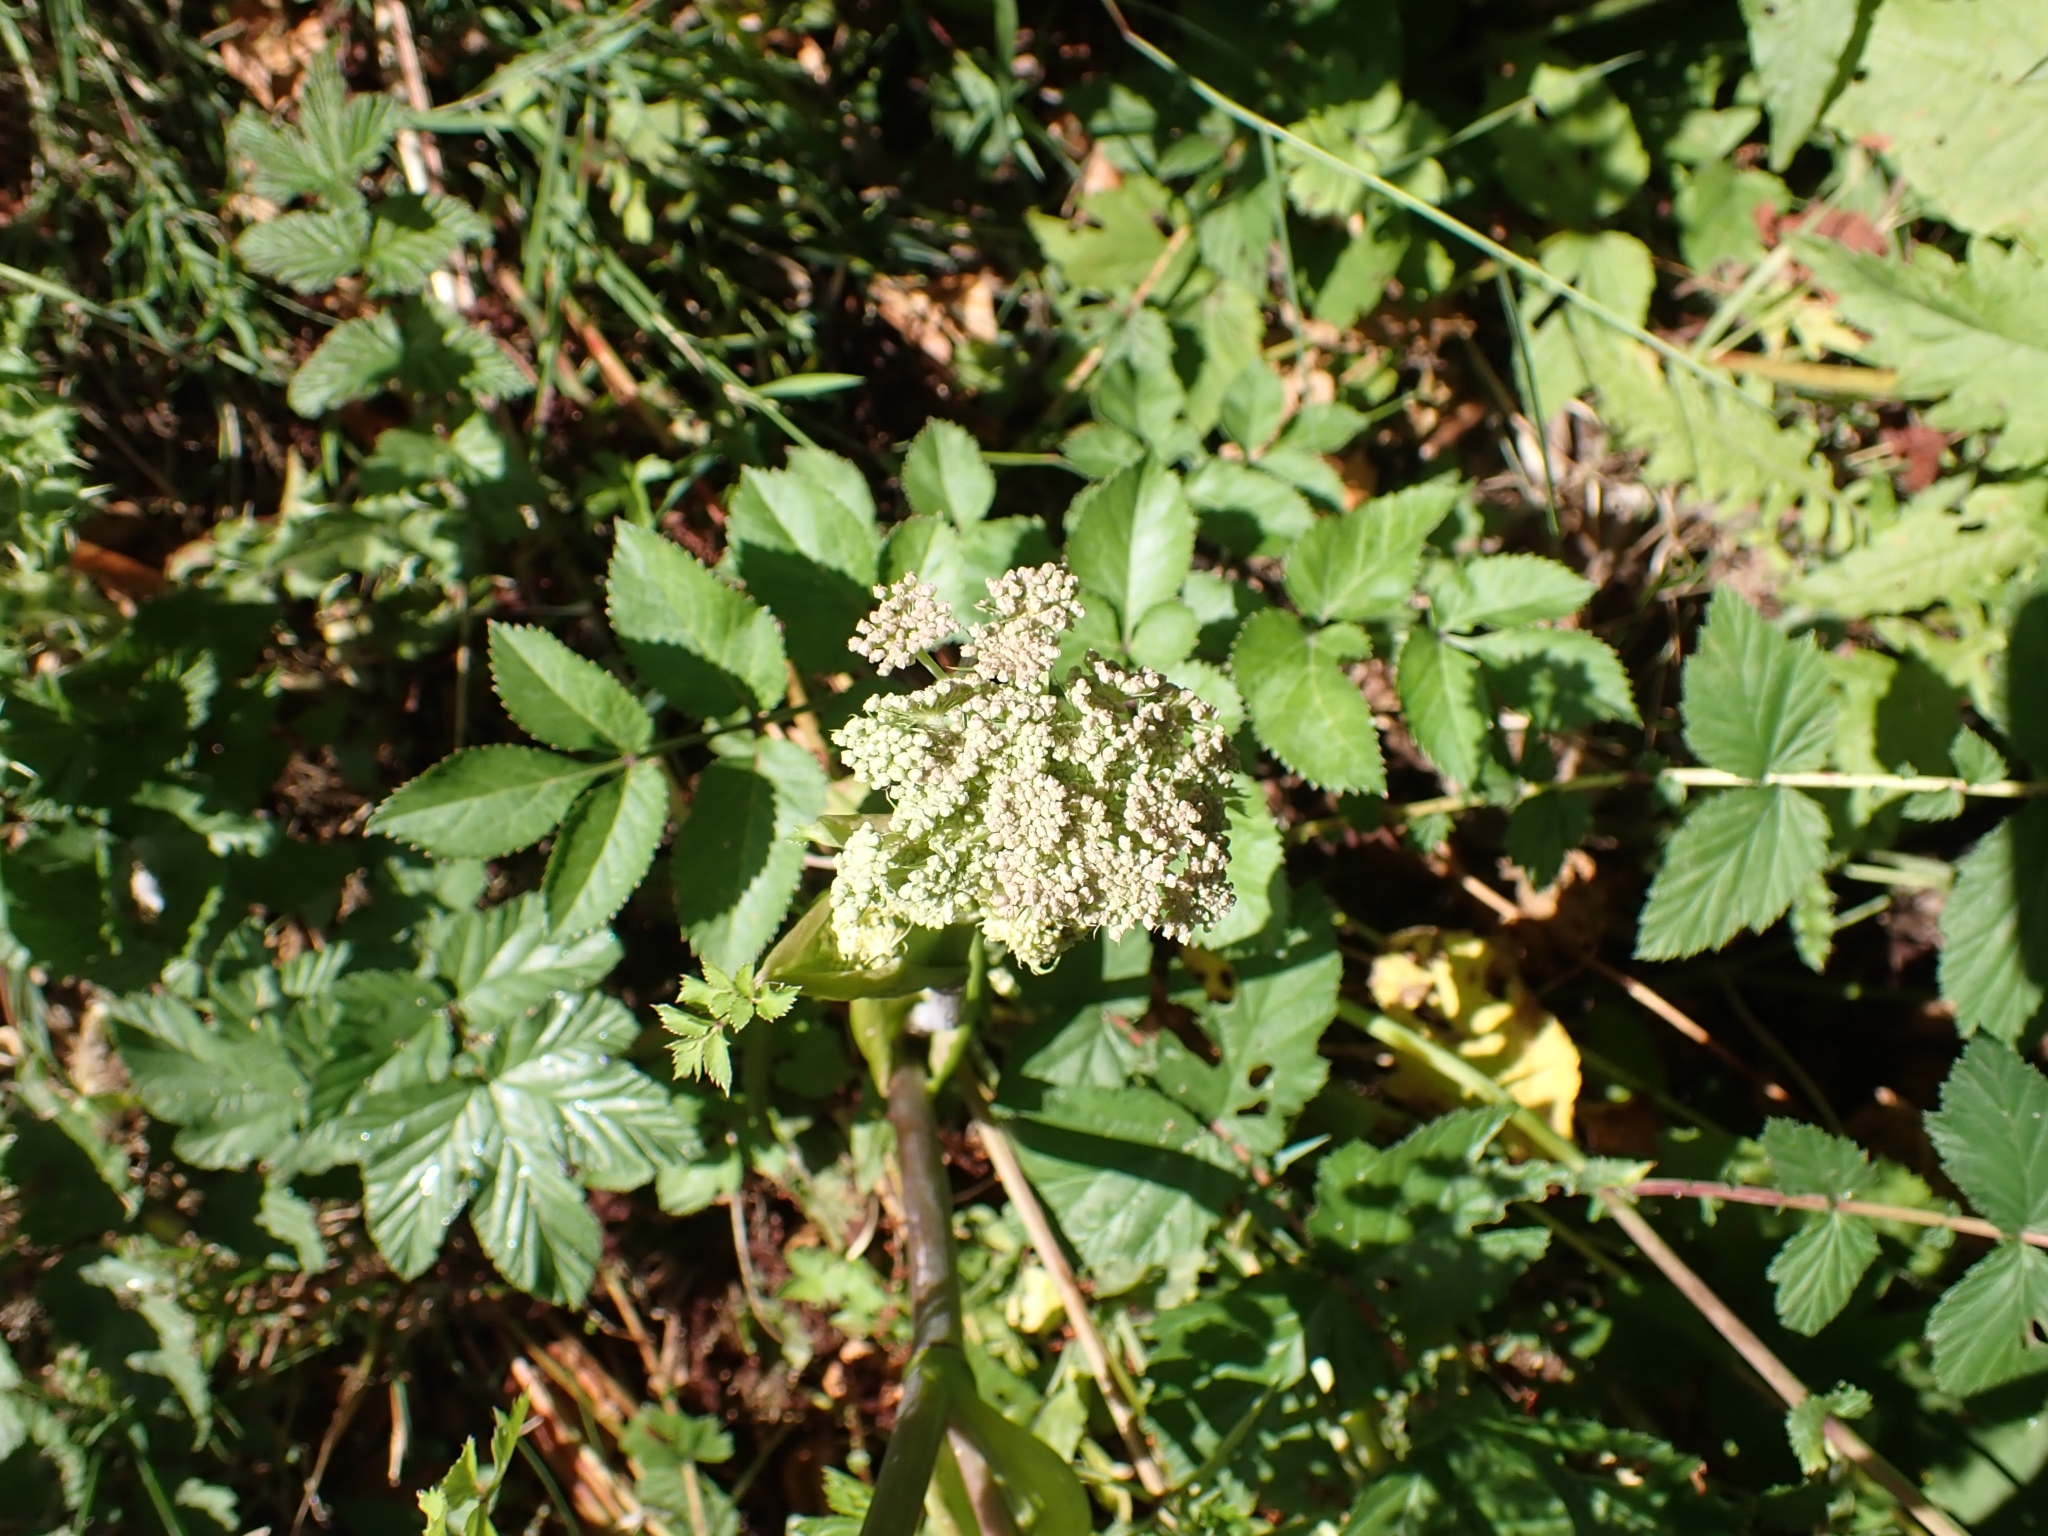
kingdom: Plantae
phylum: Tracheophyta
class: Magnoliopsida
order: Rosales
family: Rosaceae
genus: Filipendula
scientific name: Filipendula ulmaria
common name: Meadowsweet
